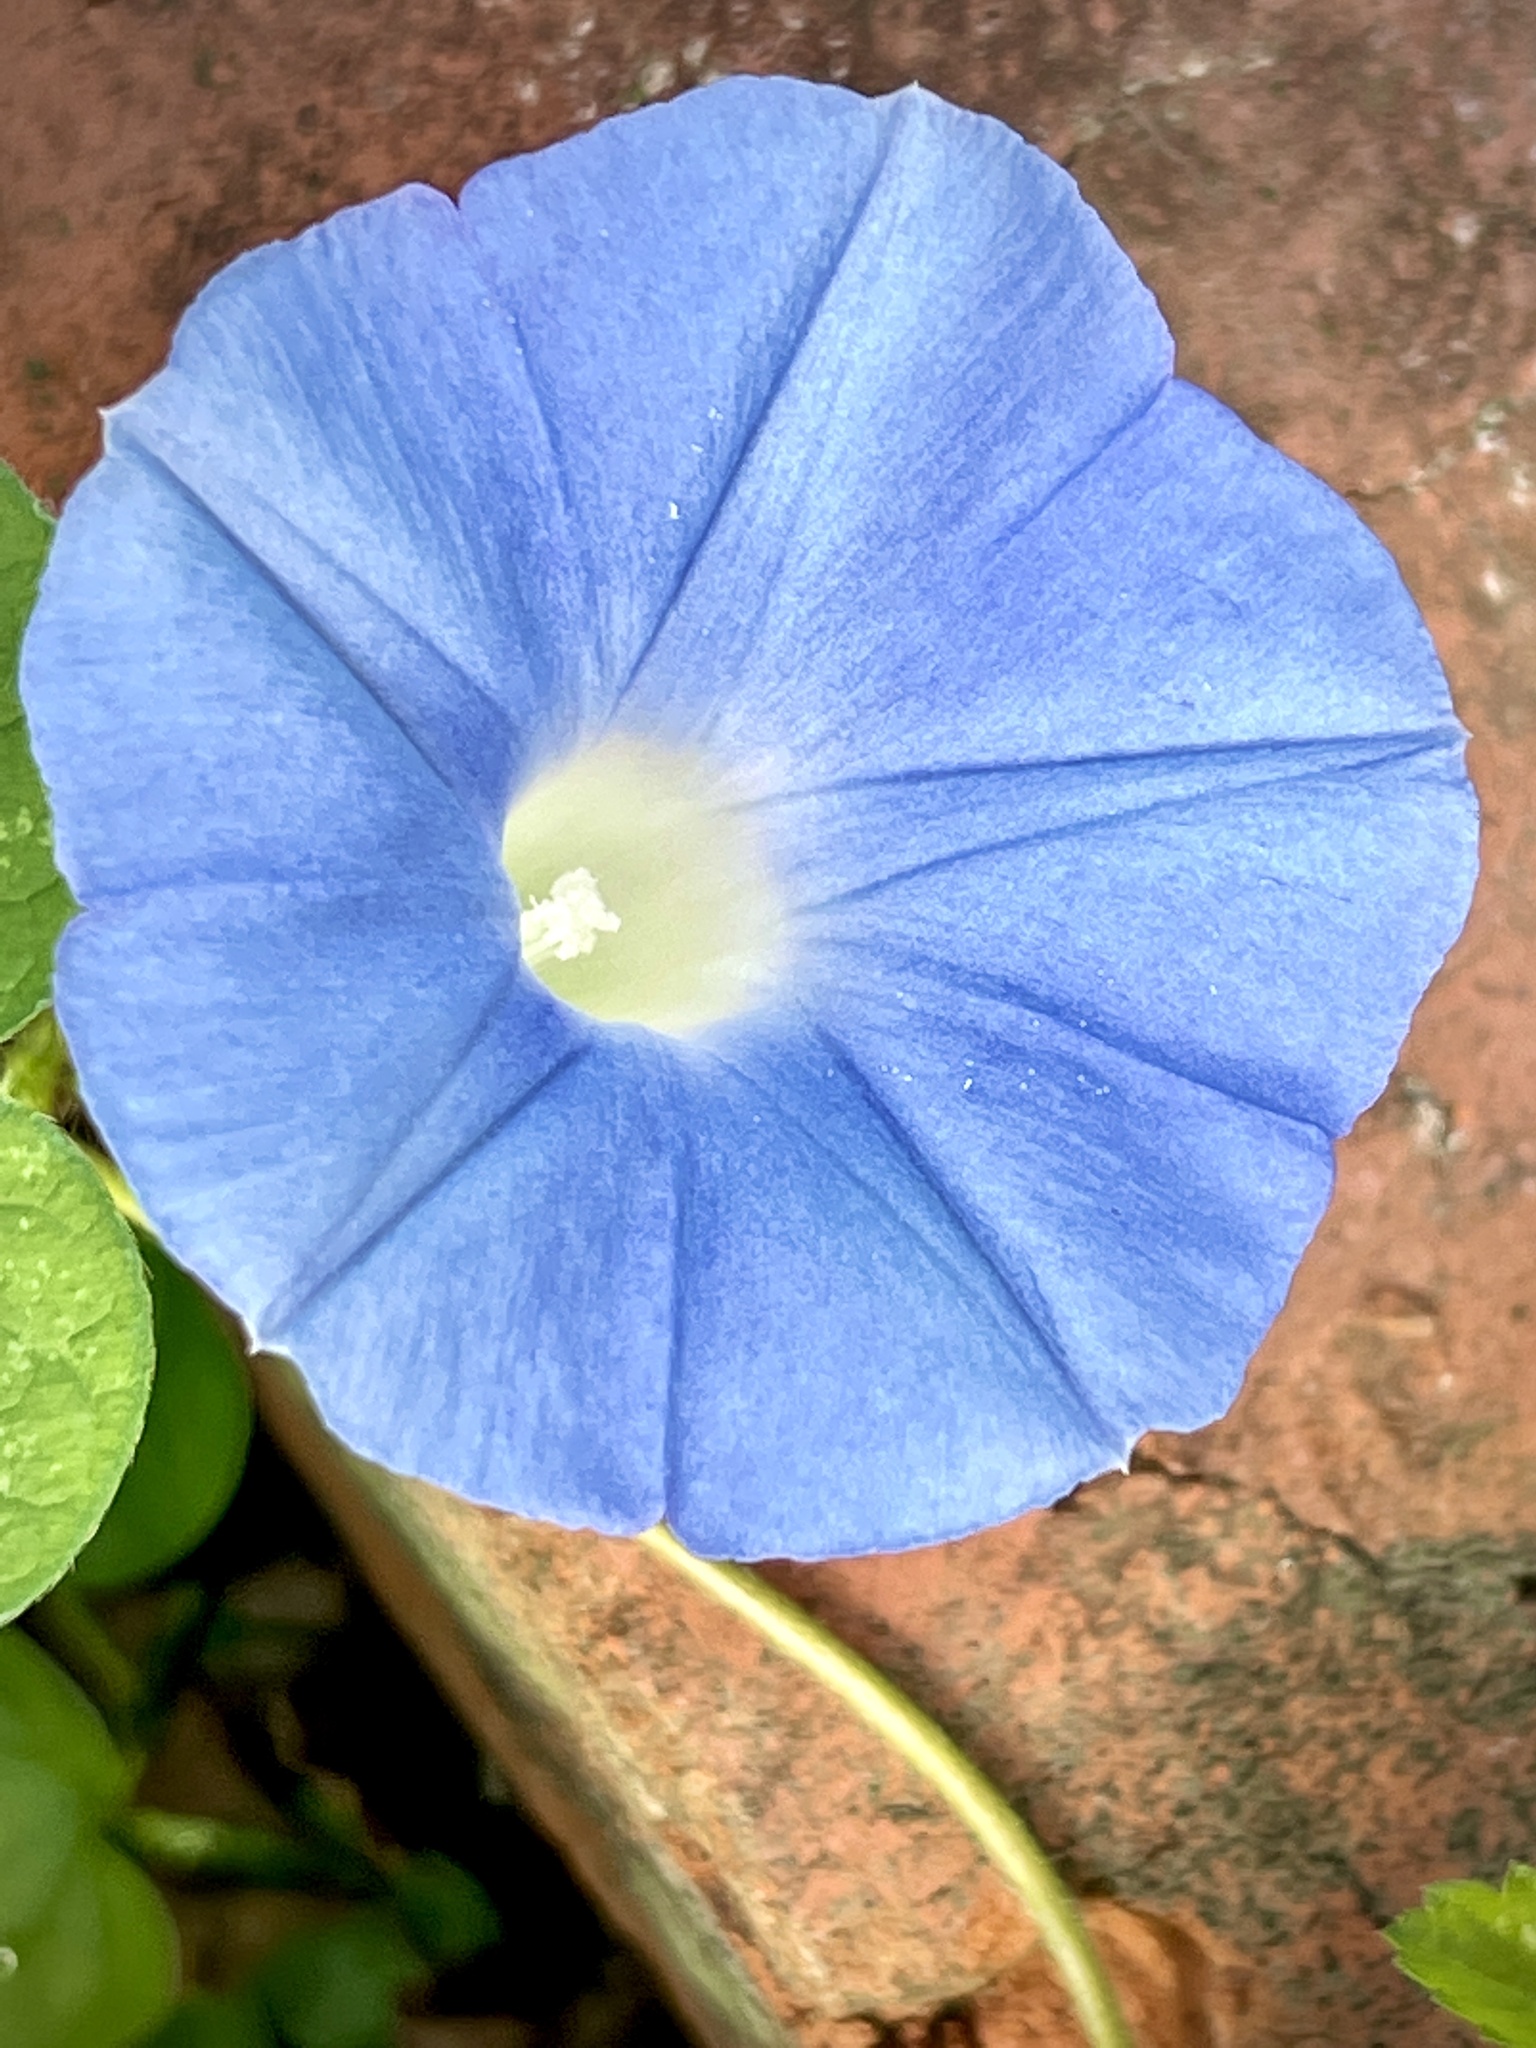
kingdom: Plantae
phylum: Tracheophyta
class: Magnoliopsida
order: Solanales
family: Convolvulaceae
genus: Ipomoea
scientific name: Ipomoea hederacea
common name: Ivy-leaved morning-glory
